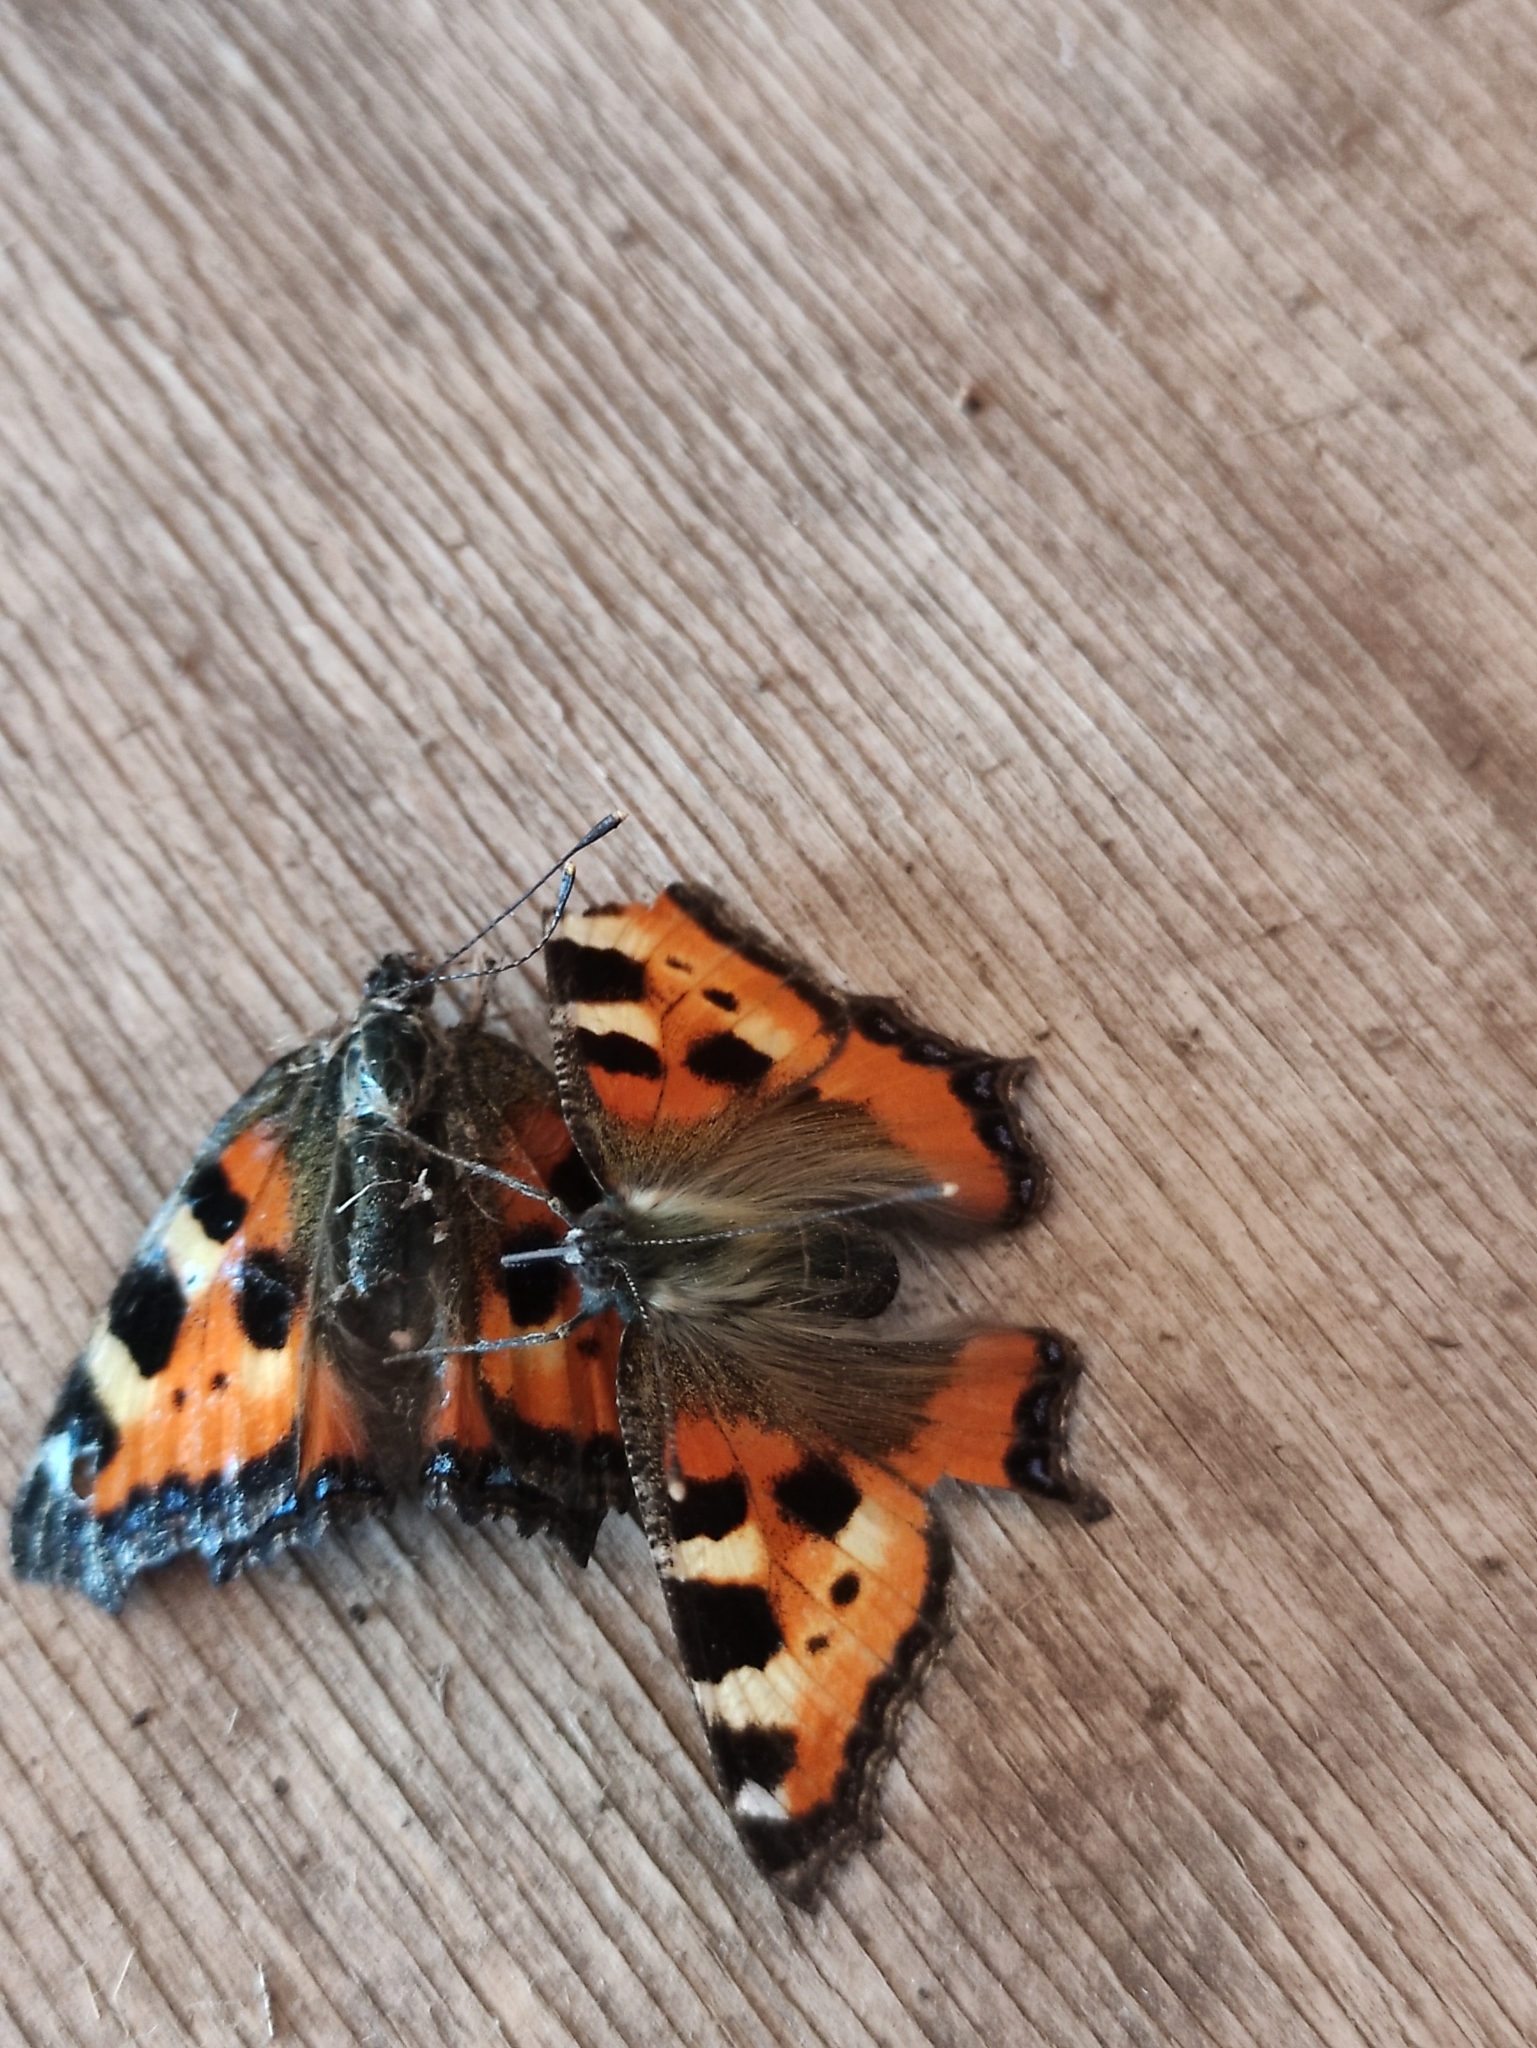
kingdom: Animalia
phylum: Arthropoda
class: Insecta
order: Lepidoptera
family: Nymphalidae
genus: Aglais
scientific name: Aglais urticae
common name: Small tortoiseshell
